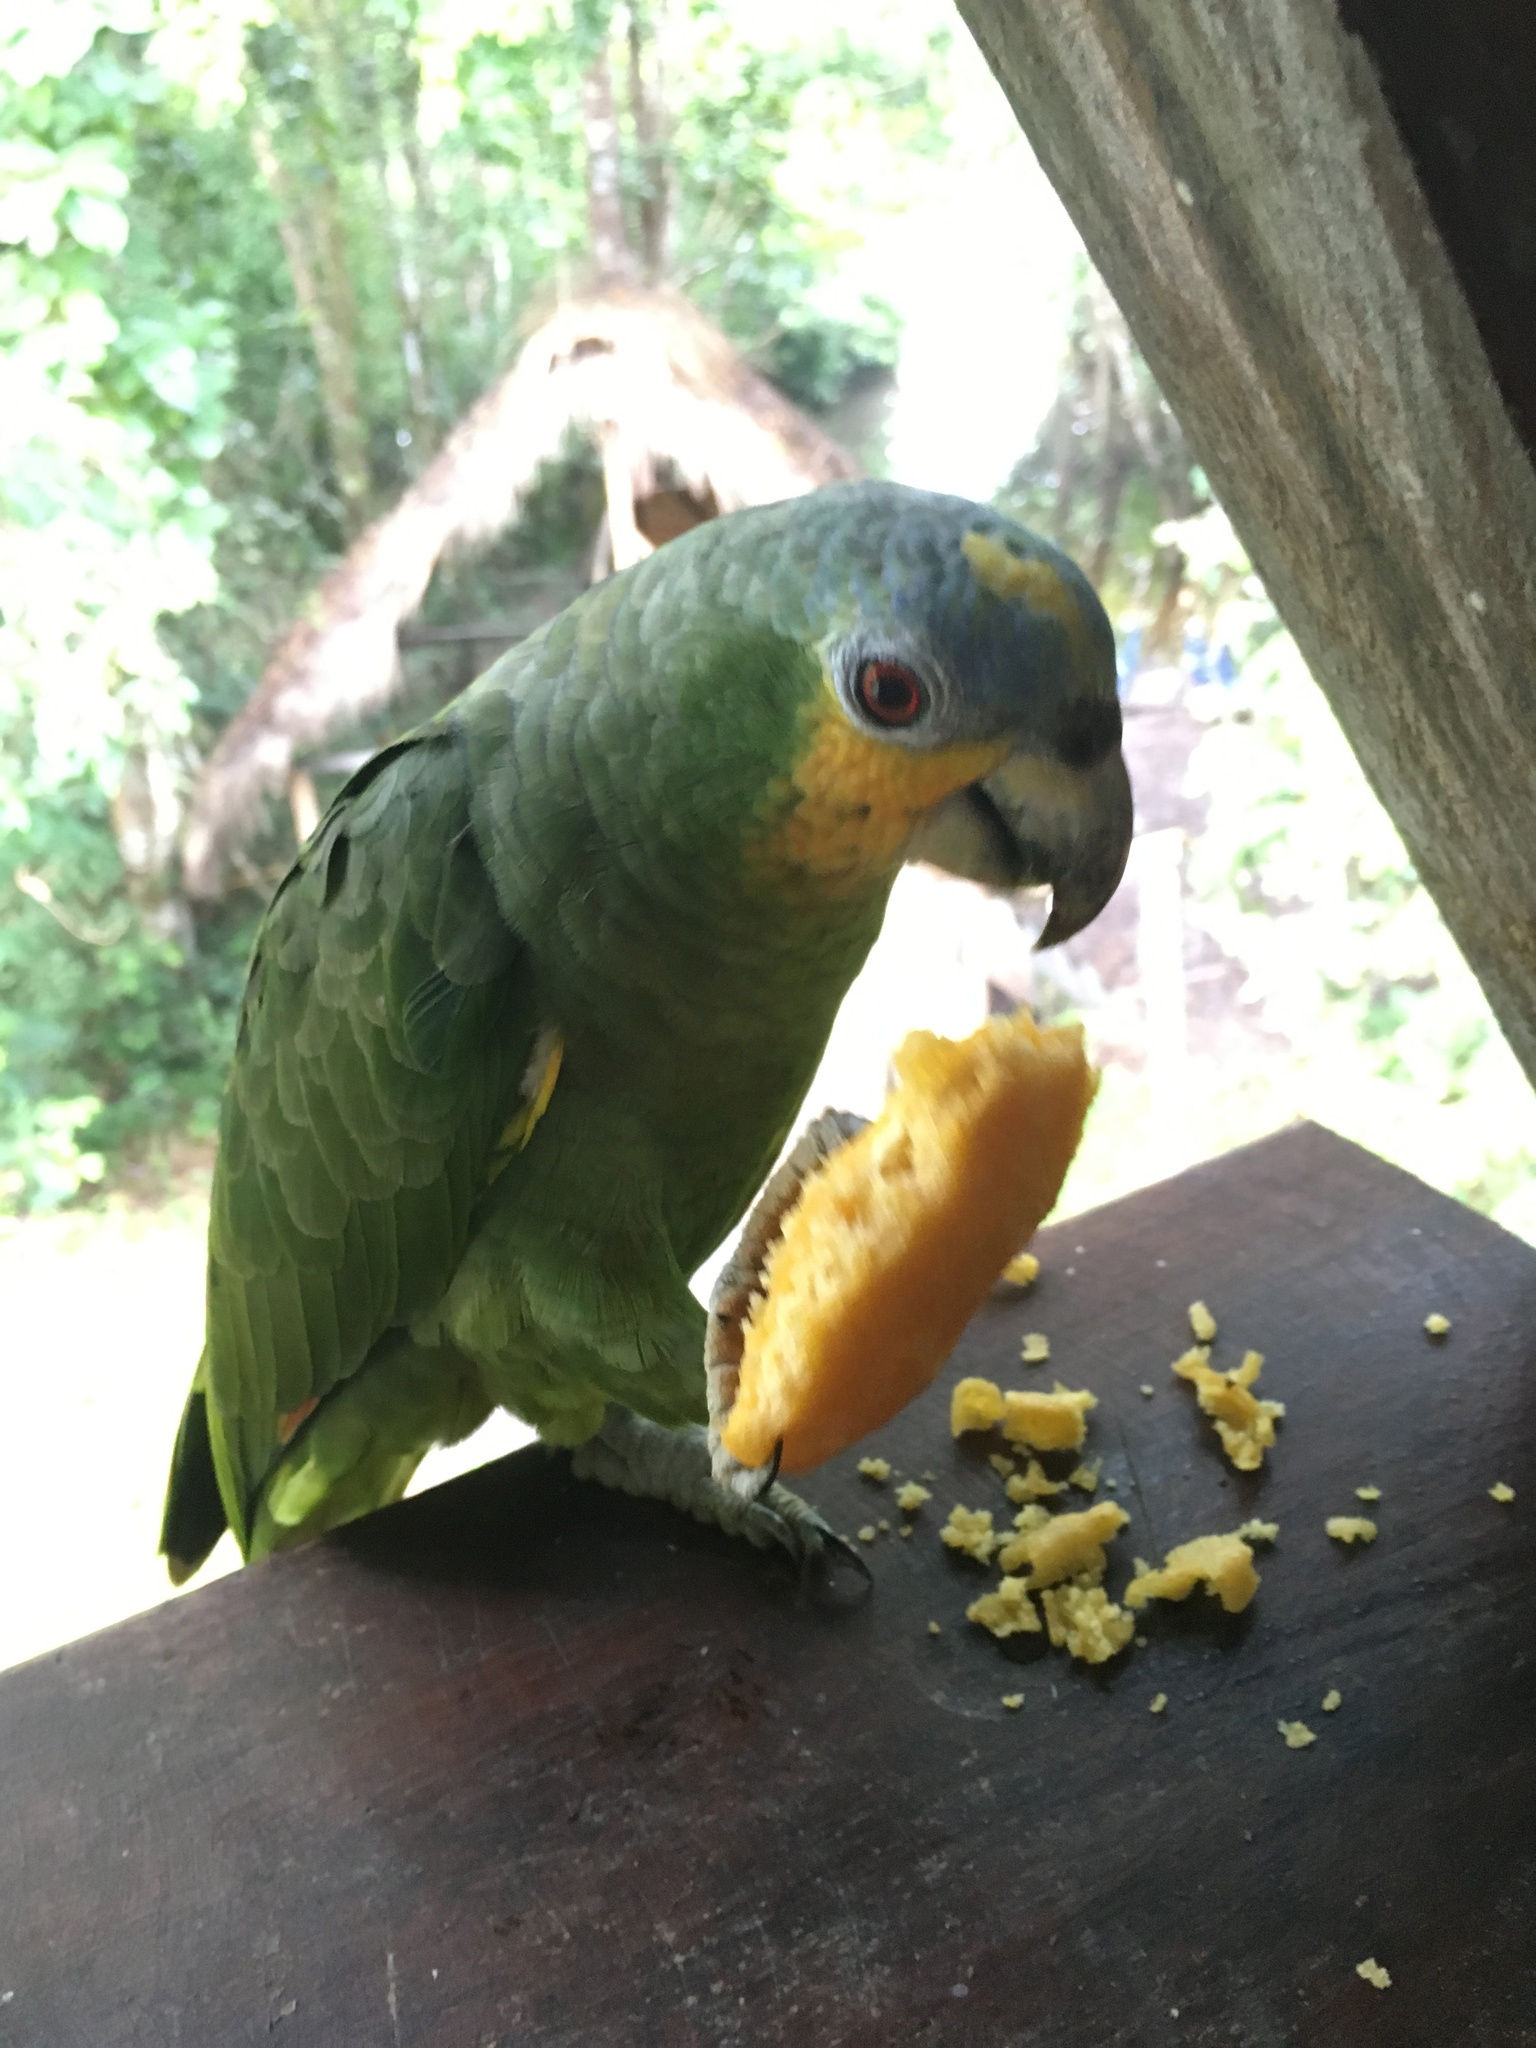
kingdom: Animalia
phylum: Chordata
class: Aves
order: Psittaciformes
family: Psittacidae
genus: Amazona
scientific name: Amazona amazonica
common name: Orange-winged amazon
